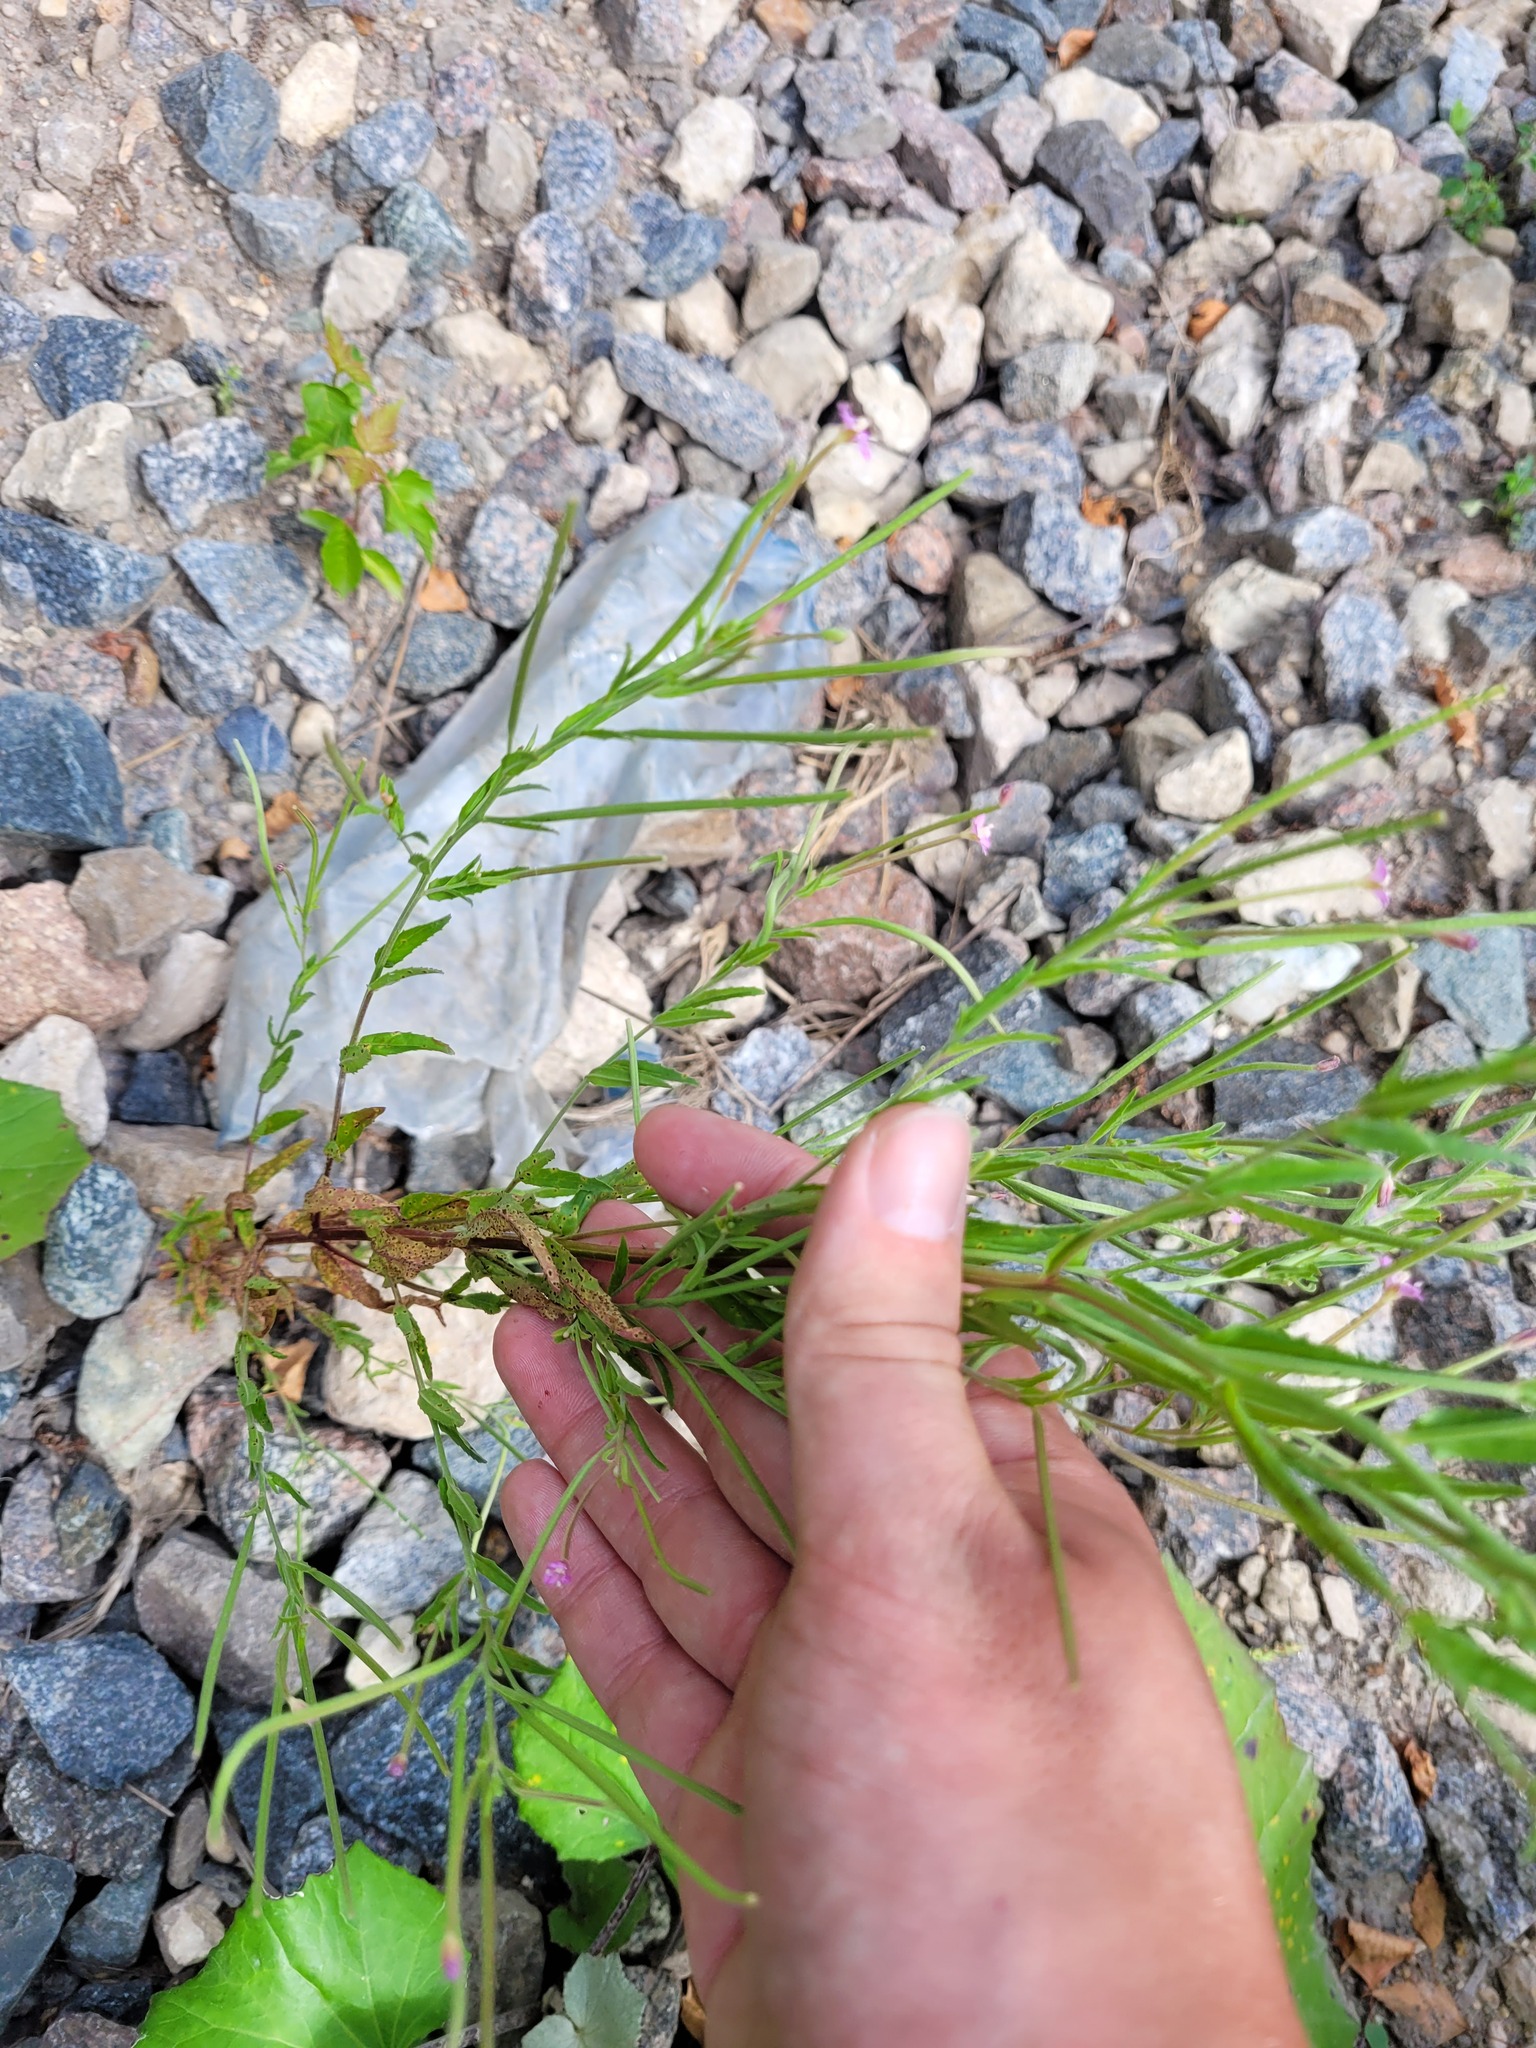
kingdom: Plantae
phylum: Tracheophyta
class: Magnoliopsida
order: Myrtales
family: Onagraceae
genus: Epilobium
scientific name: Epilobium tetragonum
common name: Square-stemmed willowherb
